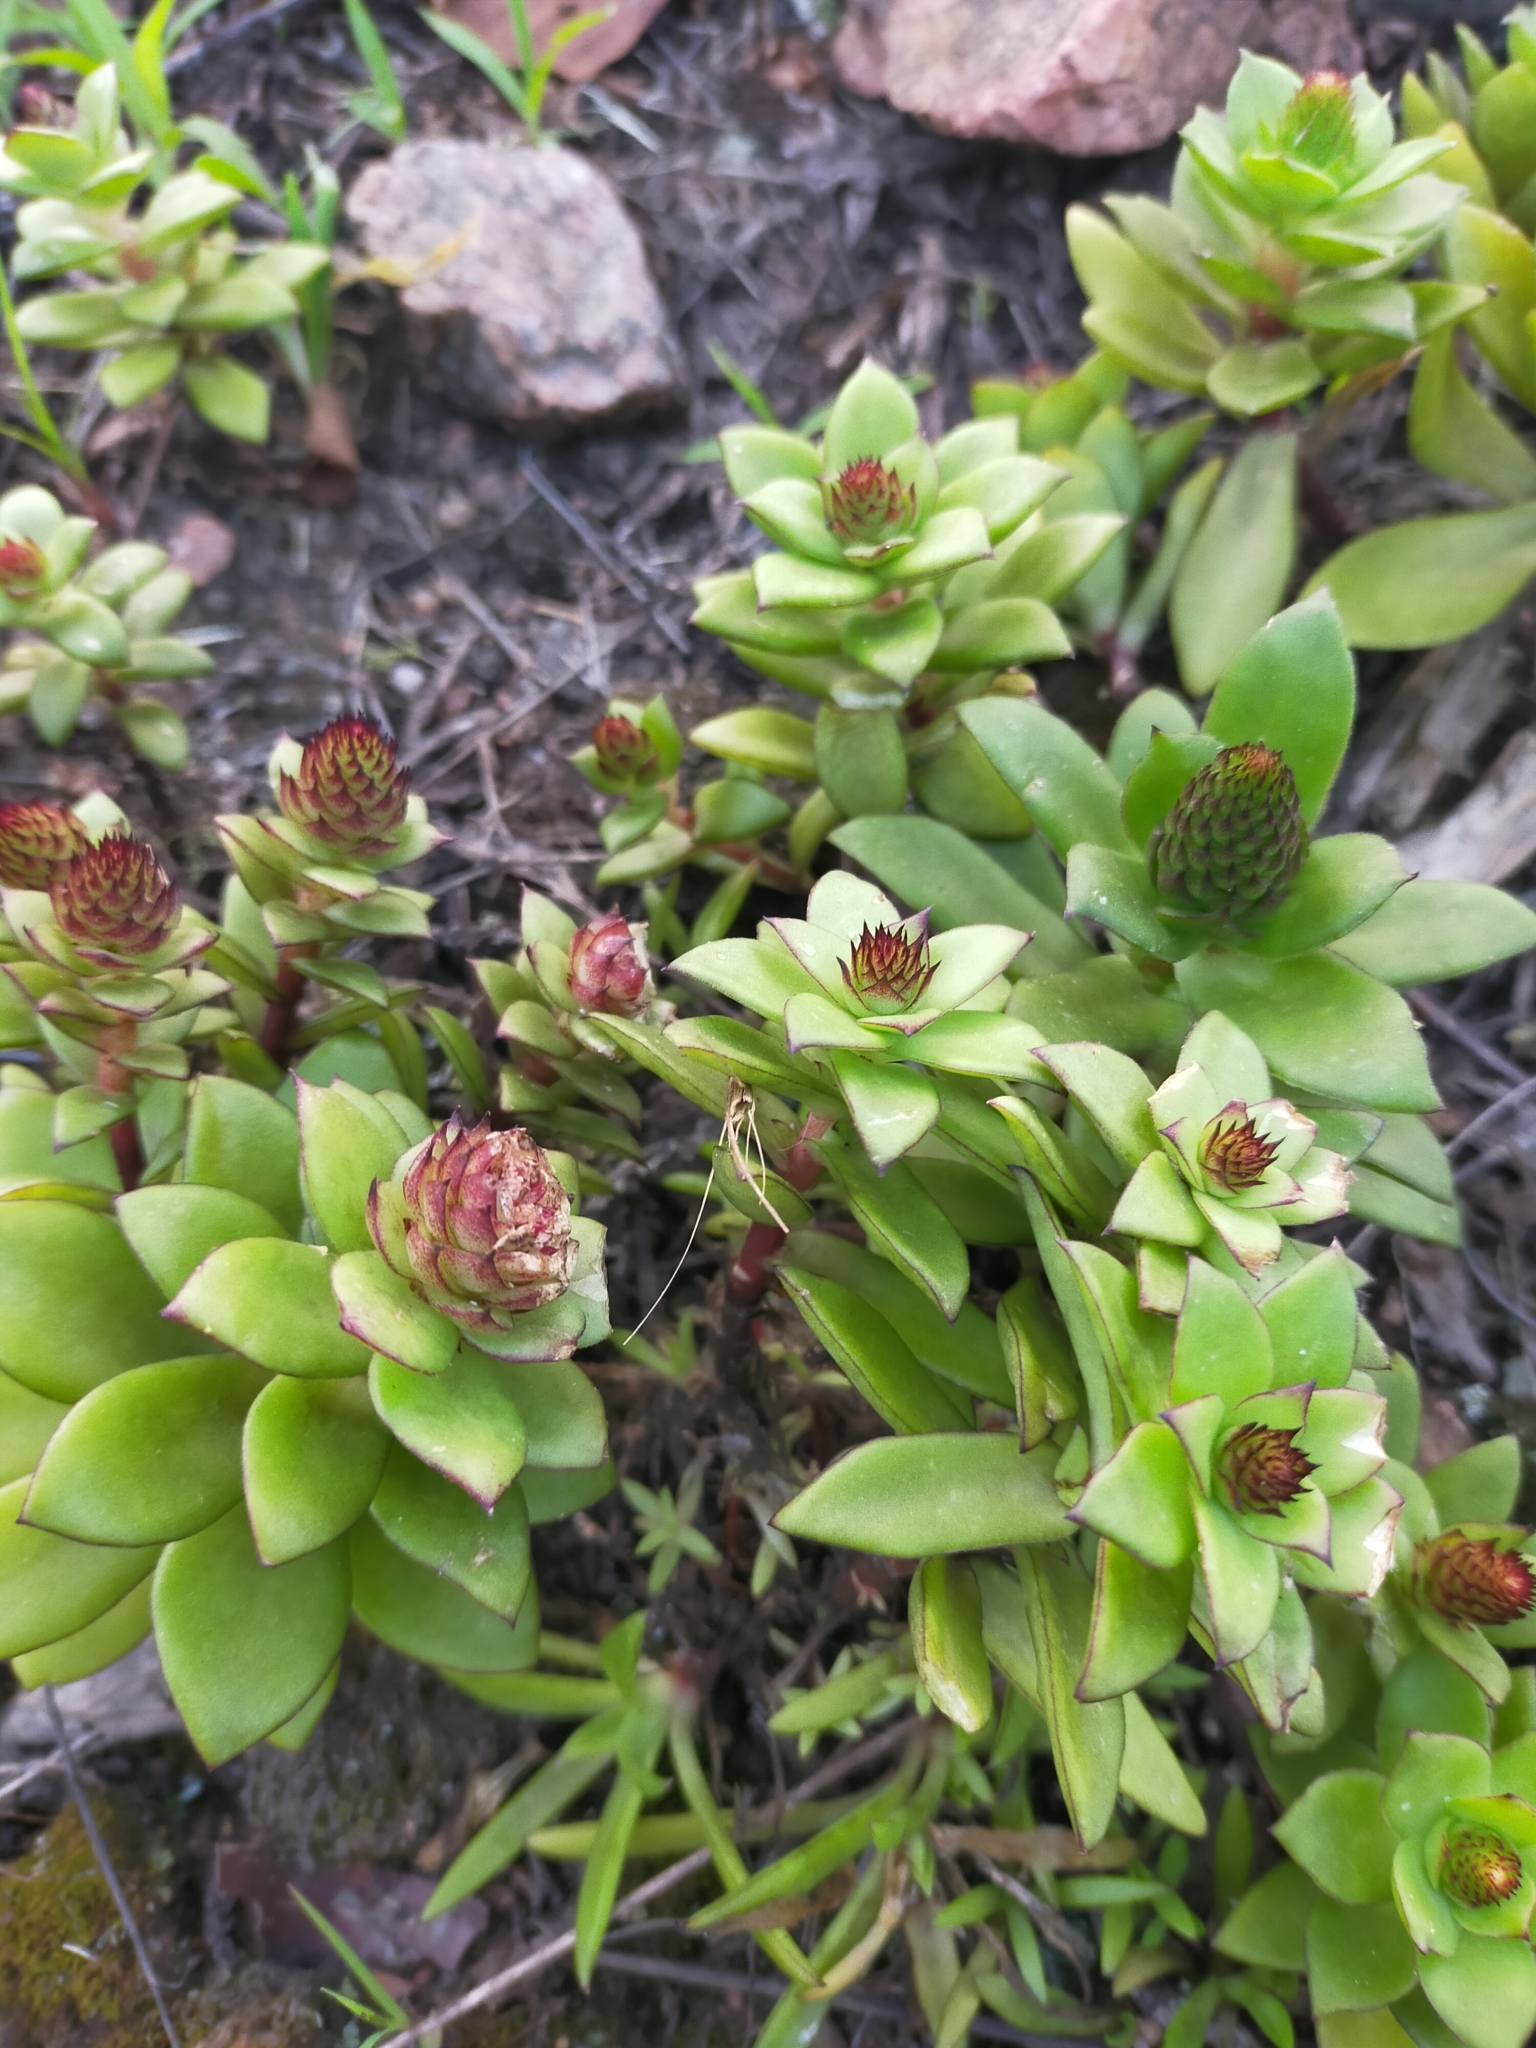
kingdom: Plantae
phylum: Tracheophyta
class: Magnoliopsida
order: Saxifragales
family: Crassulaceae
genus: Orostachys
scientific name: Orostachys maximowiczii
